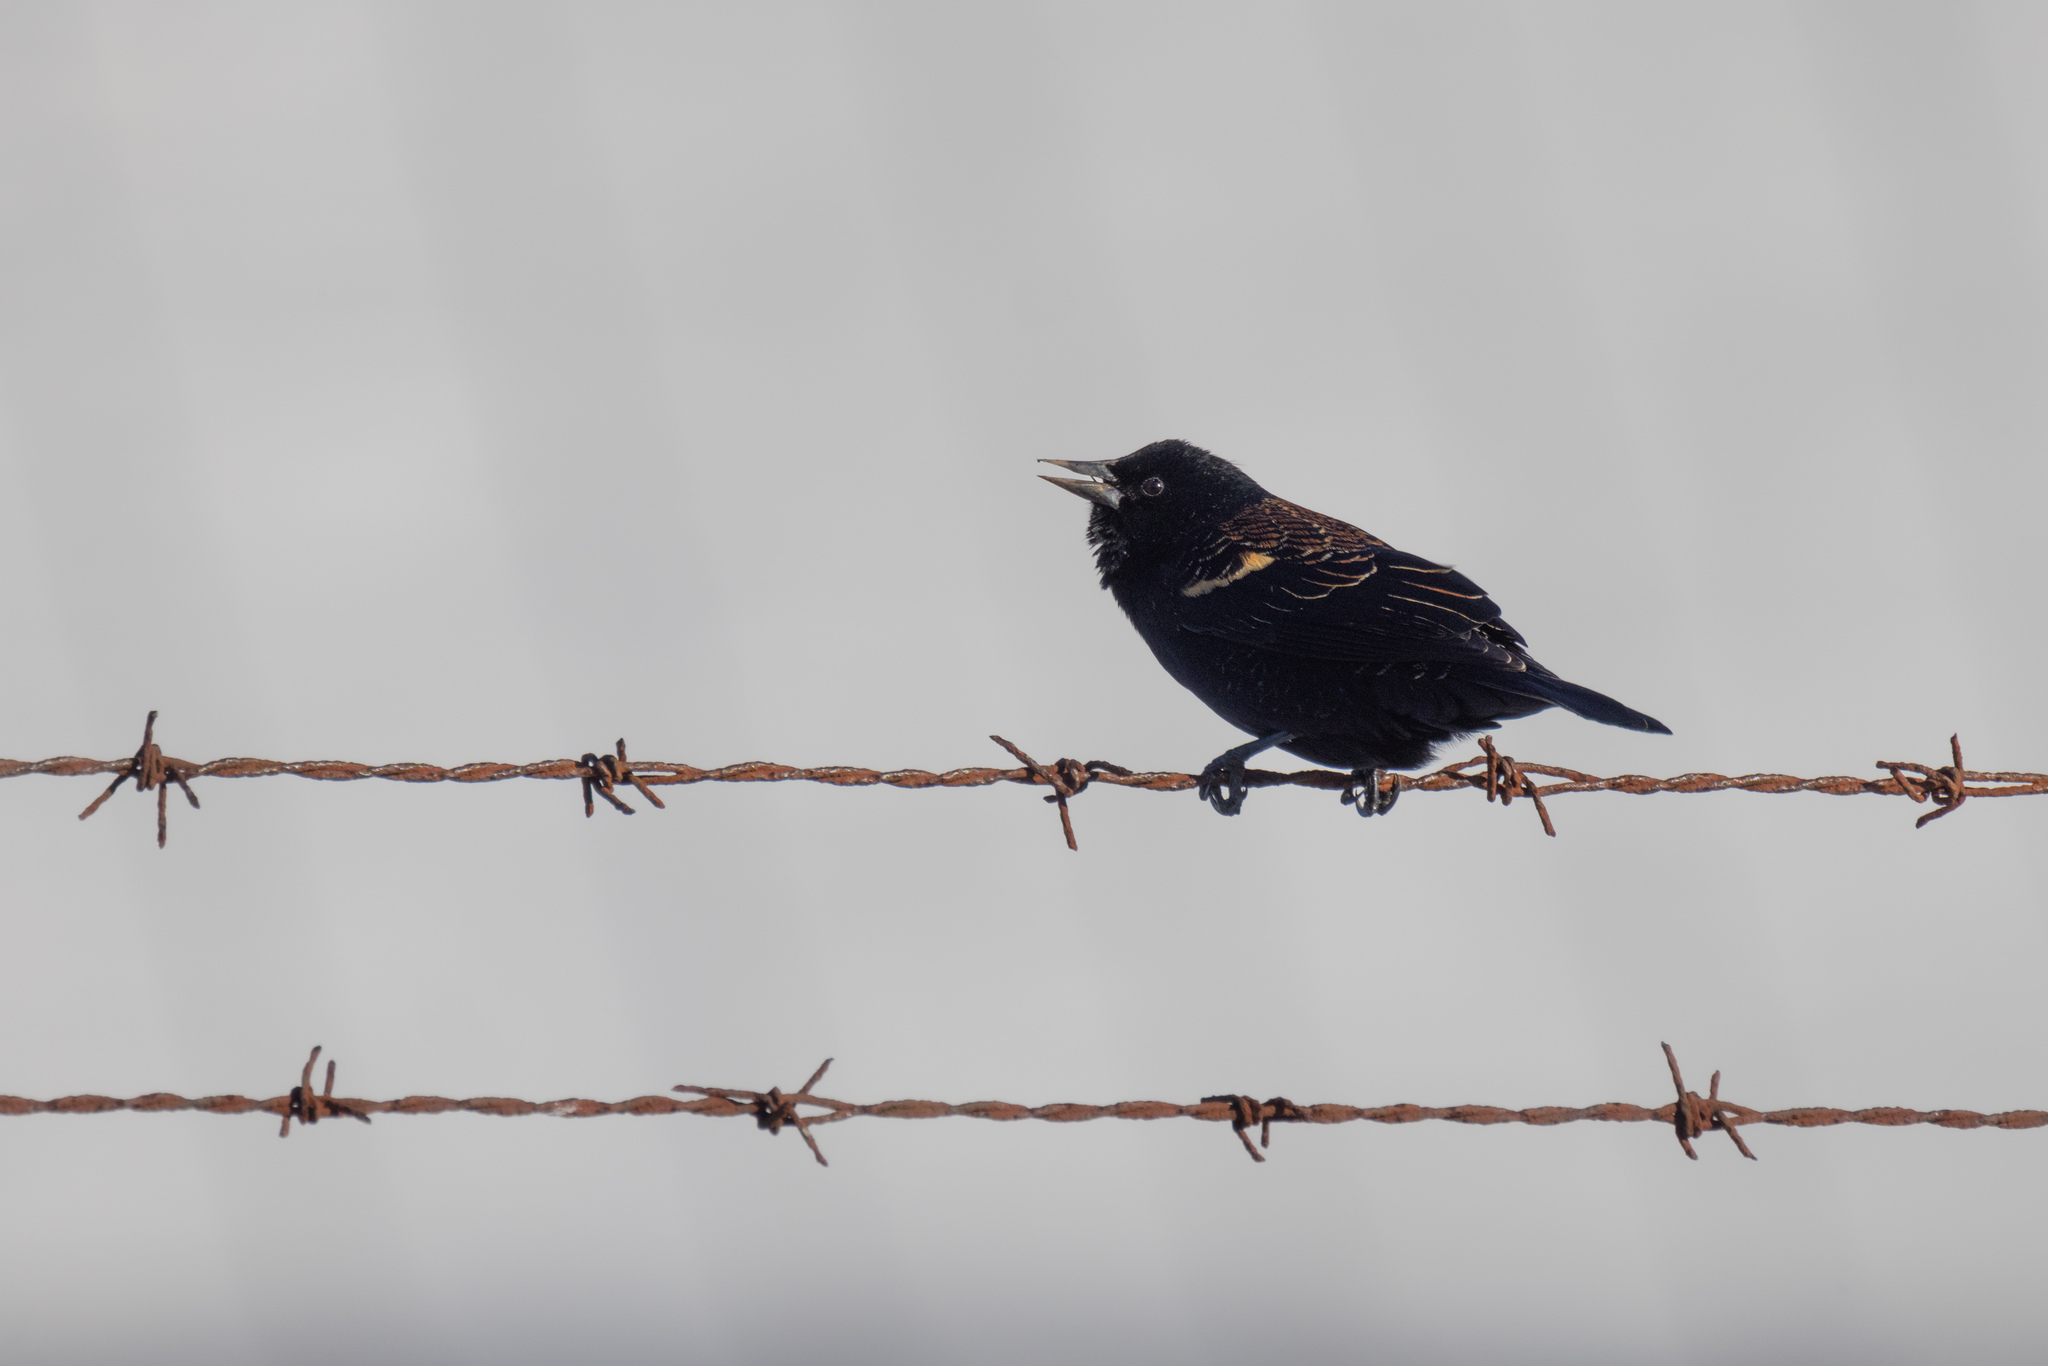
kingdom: Animalia
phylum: Chordata
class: Aves
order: Passeriformes
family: Icteridae
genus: Agelaius
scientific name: Agelaius phoeniceus
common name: Red-winged blackbird
